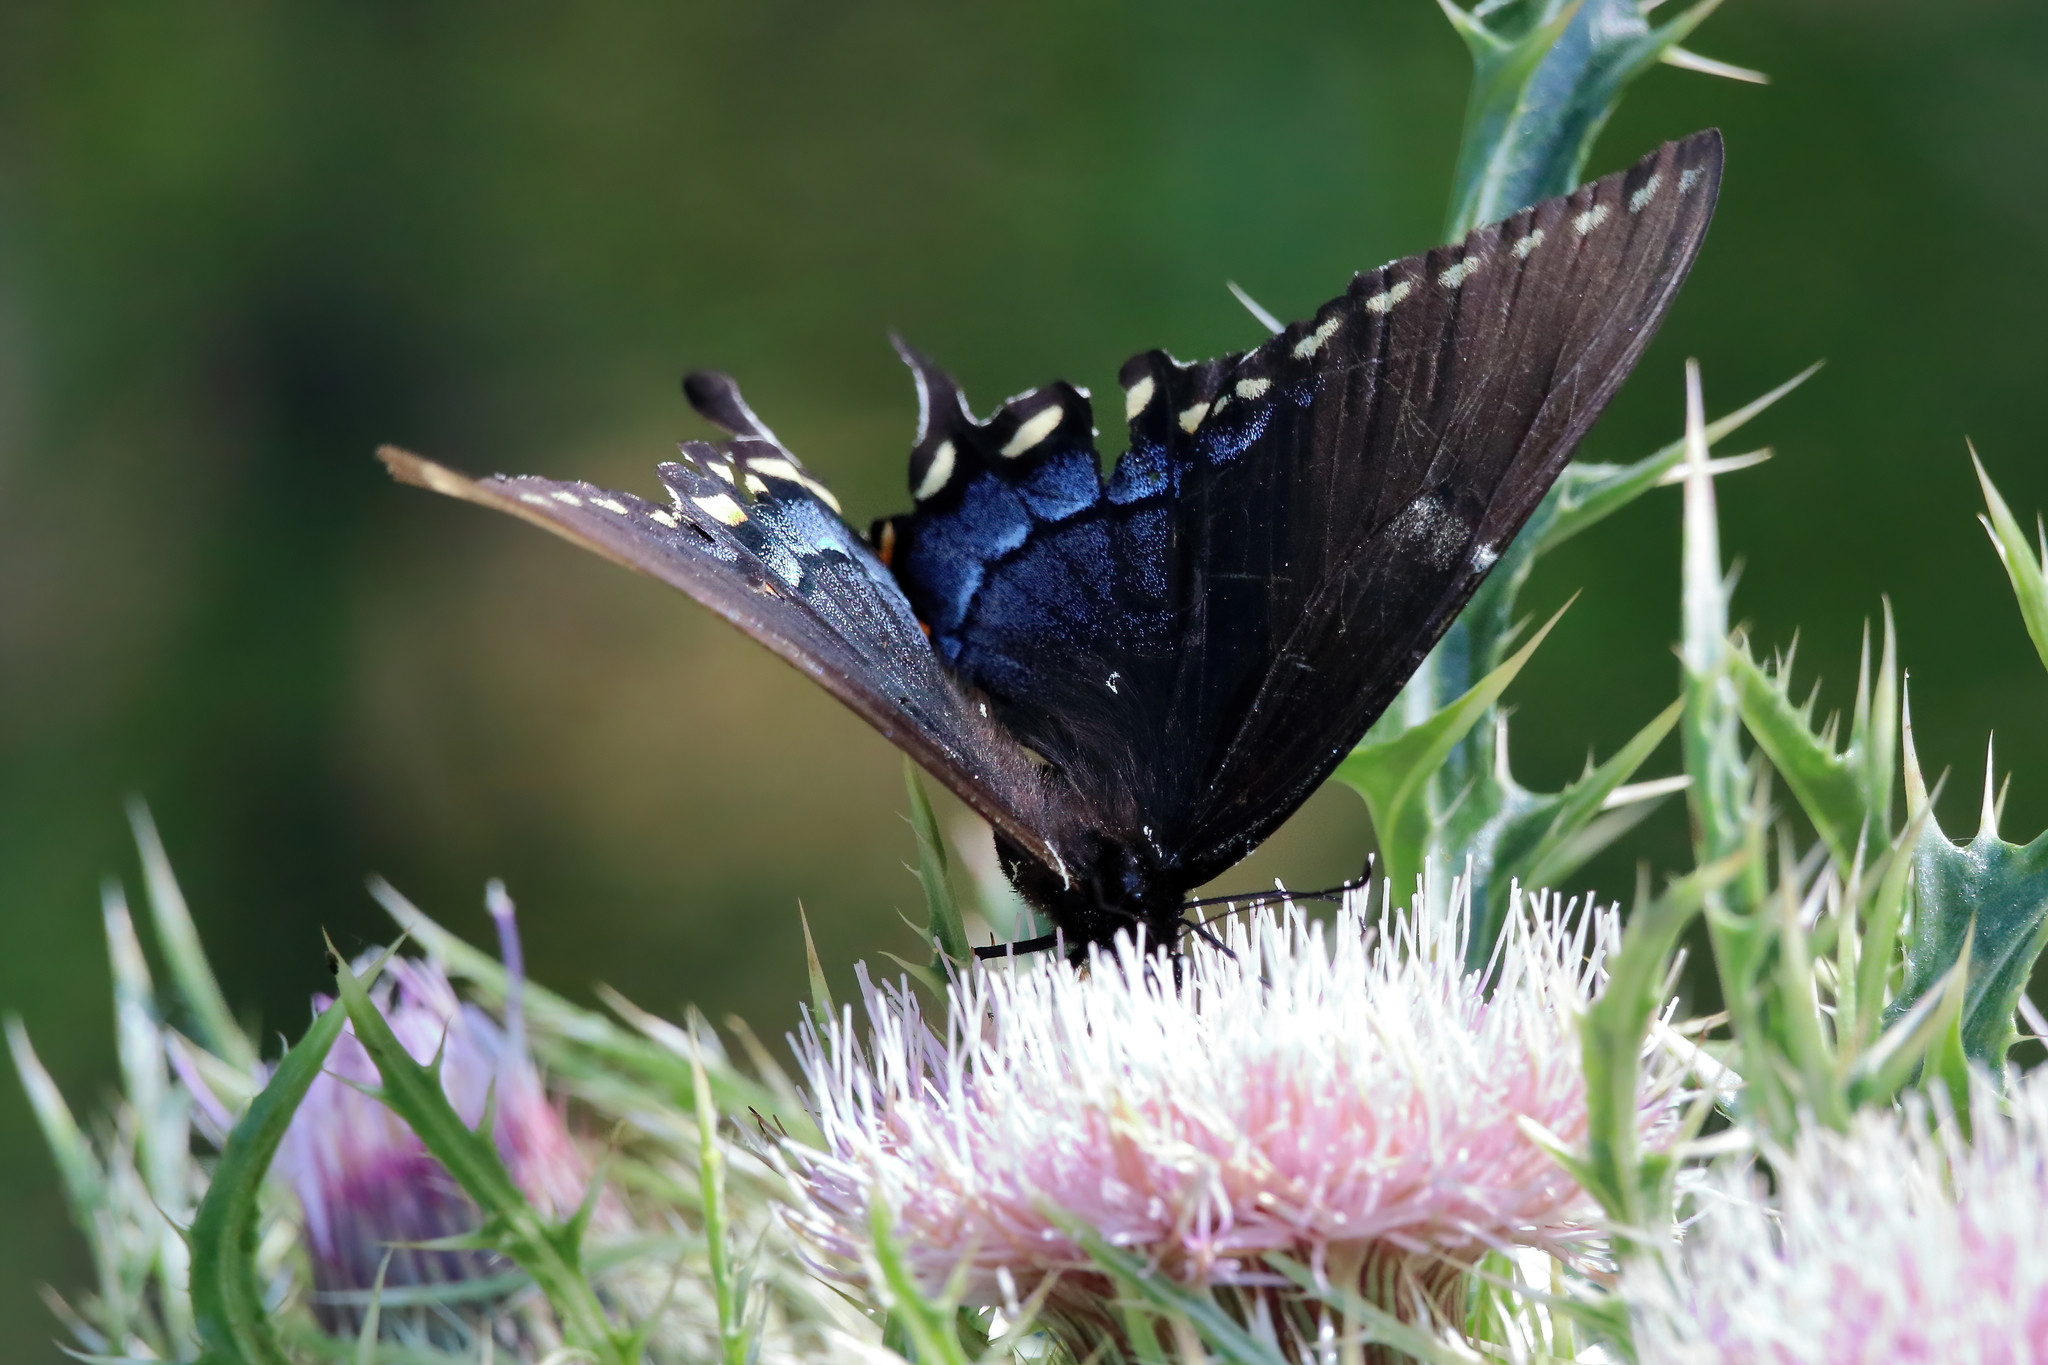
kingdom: Animalia
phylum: Arthropoda
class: Insecta
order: Lepidoptera
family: Papilionidae
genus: Papilio
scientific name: Papilio glaucus
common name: Tiger swallowtail
